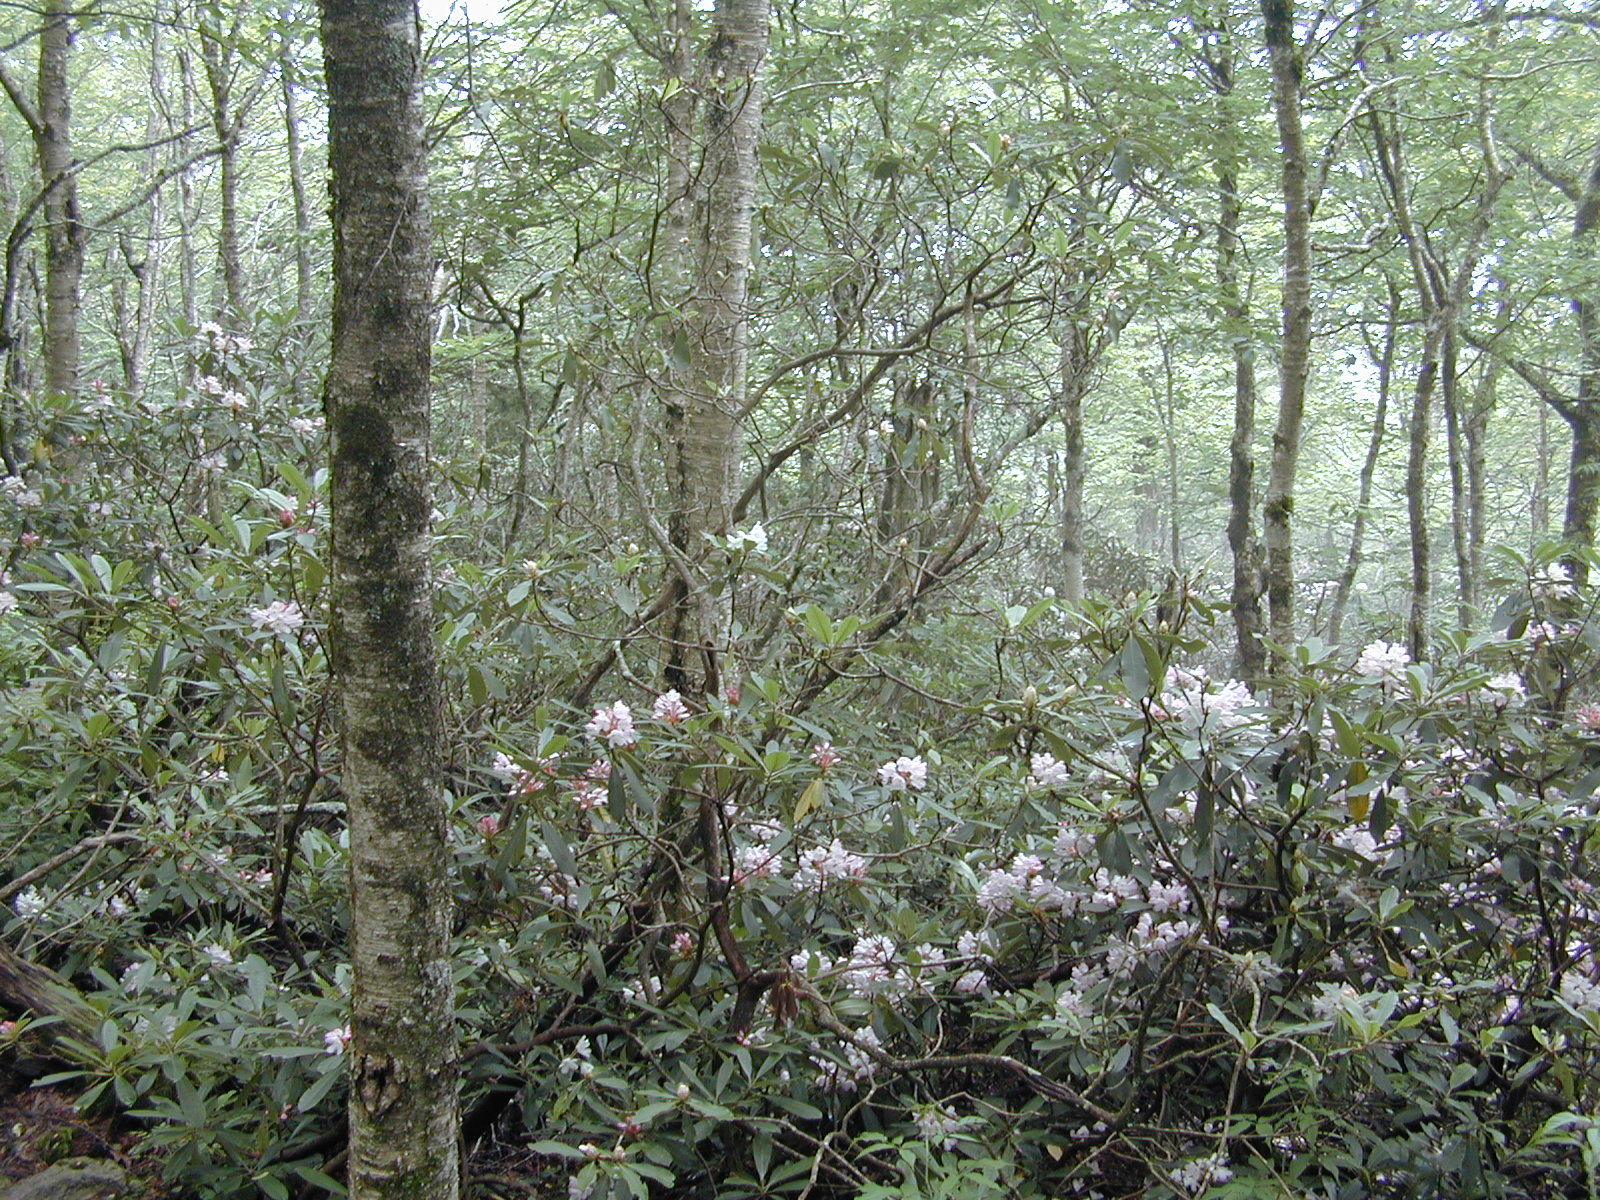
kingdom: Plantae
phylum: Tracheophyta
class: Magnoliopsida
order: Ericales
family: Ericaceae
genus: Rhododendron
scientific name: Rhododendron maximum
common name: Great rhododendron
